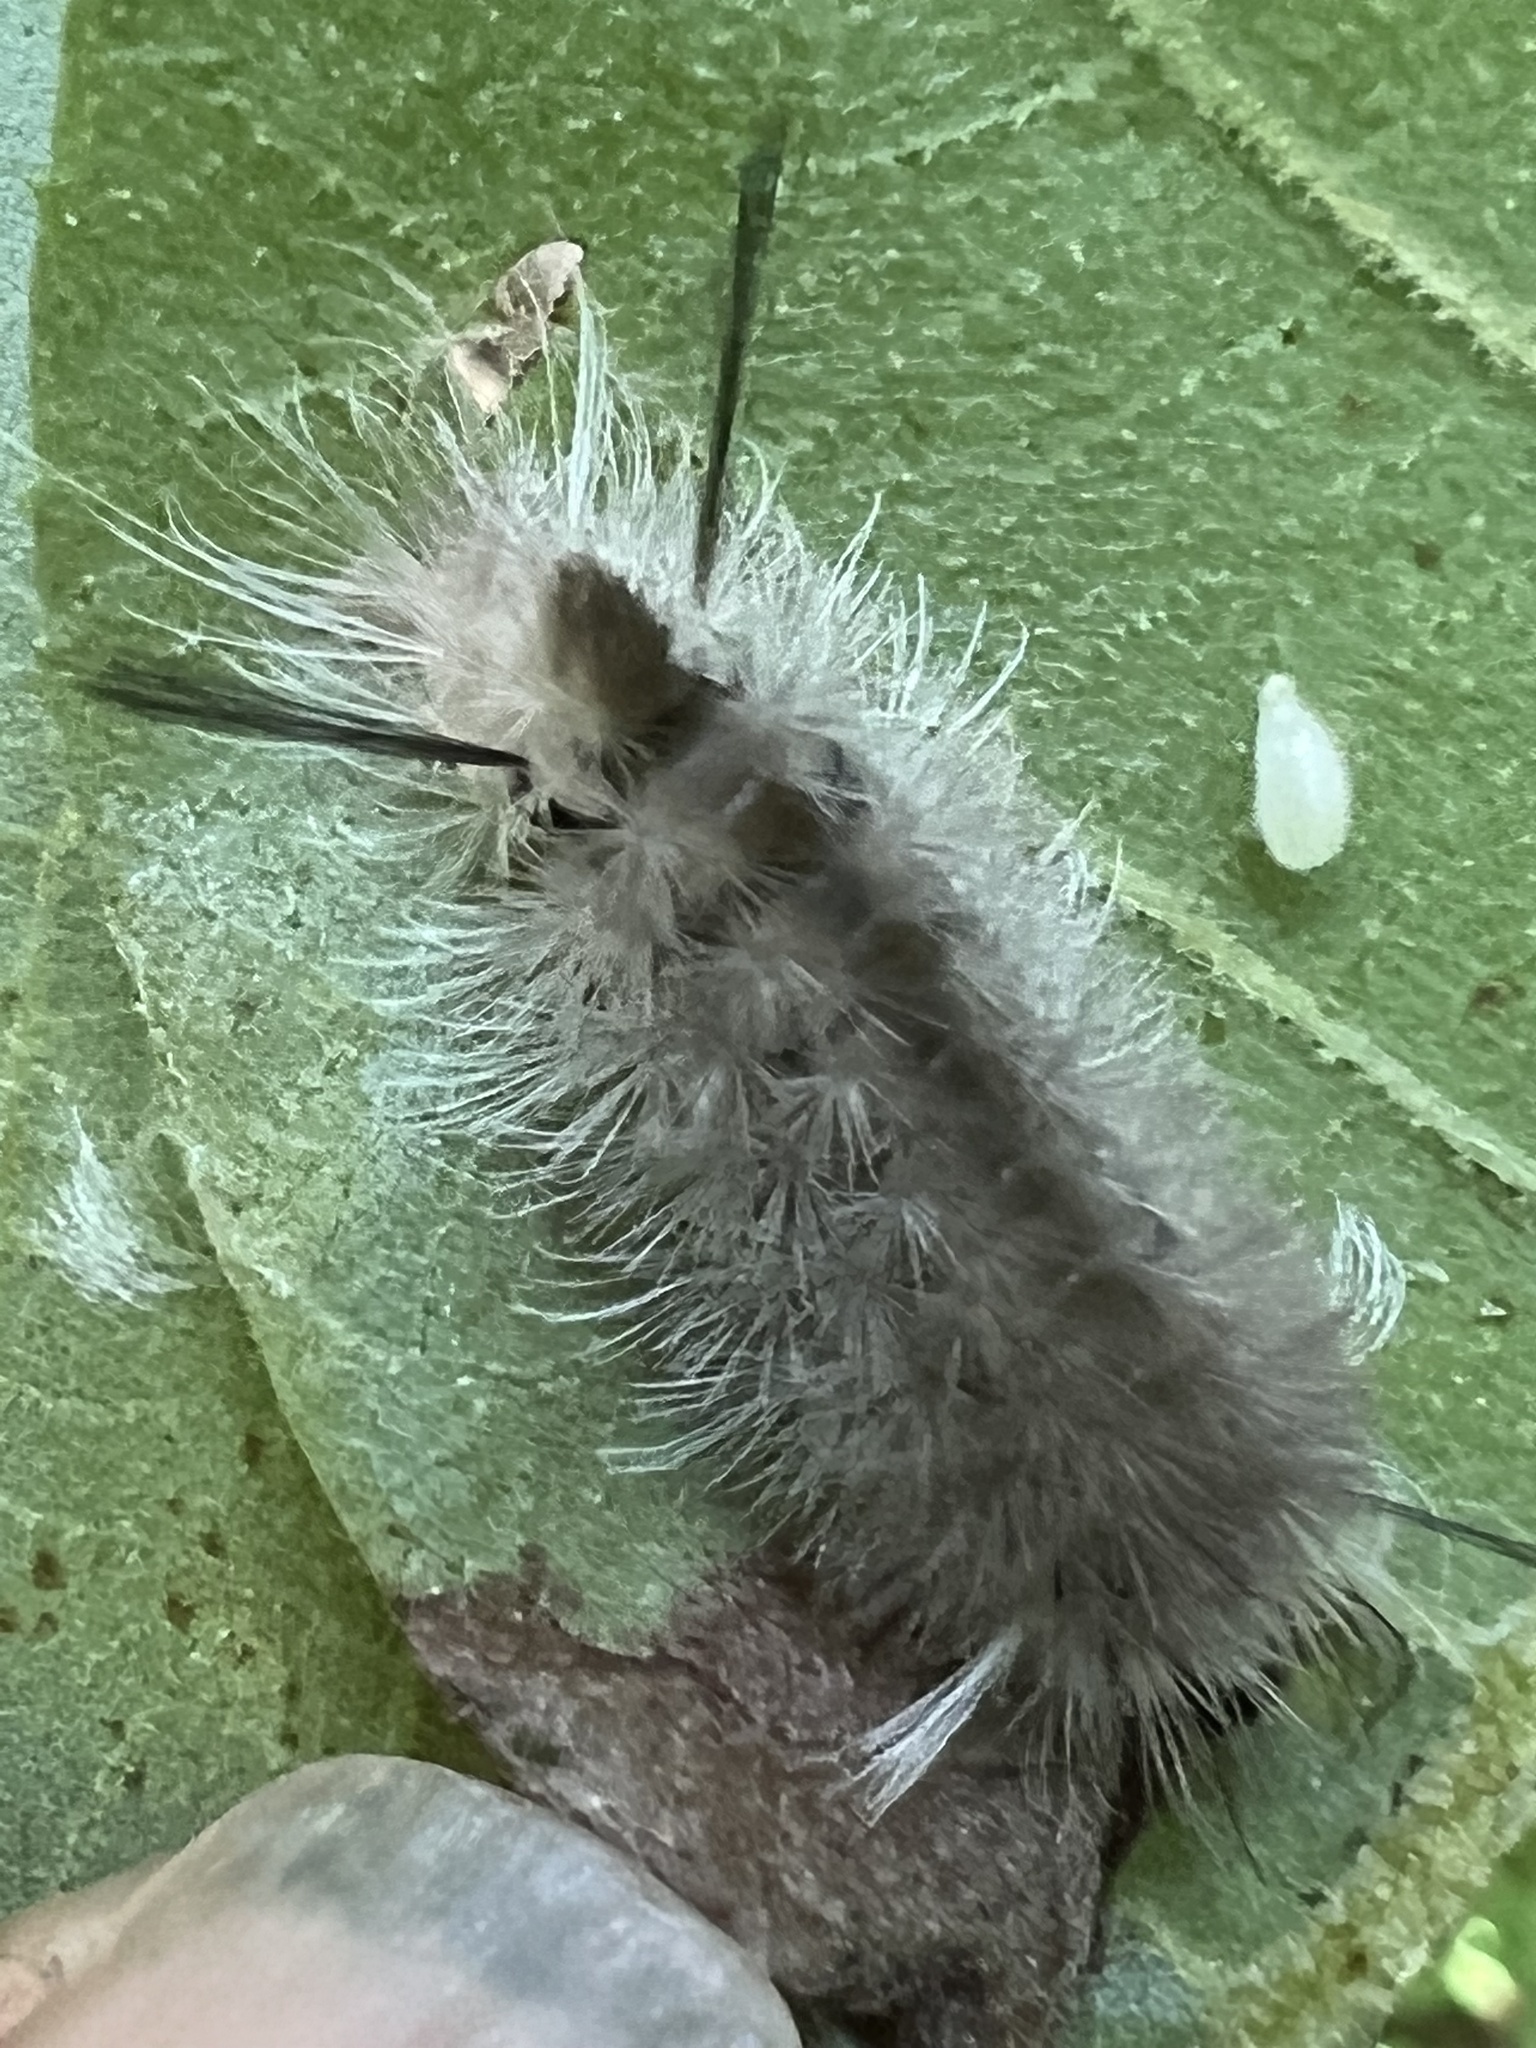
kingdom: Animalia
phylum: Arthropoda
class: Insecta
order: Lepidoptera
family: Erebidae
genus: Halysidota
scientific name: Halysidota tessellaris
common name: Banded tussock moth
